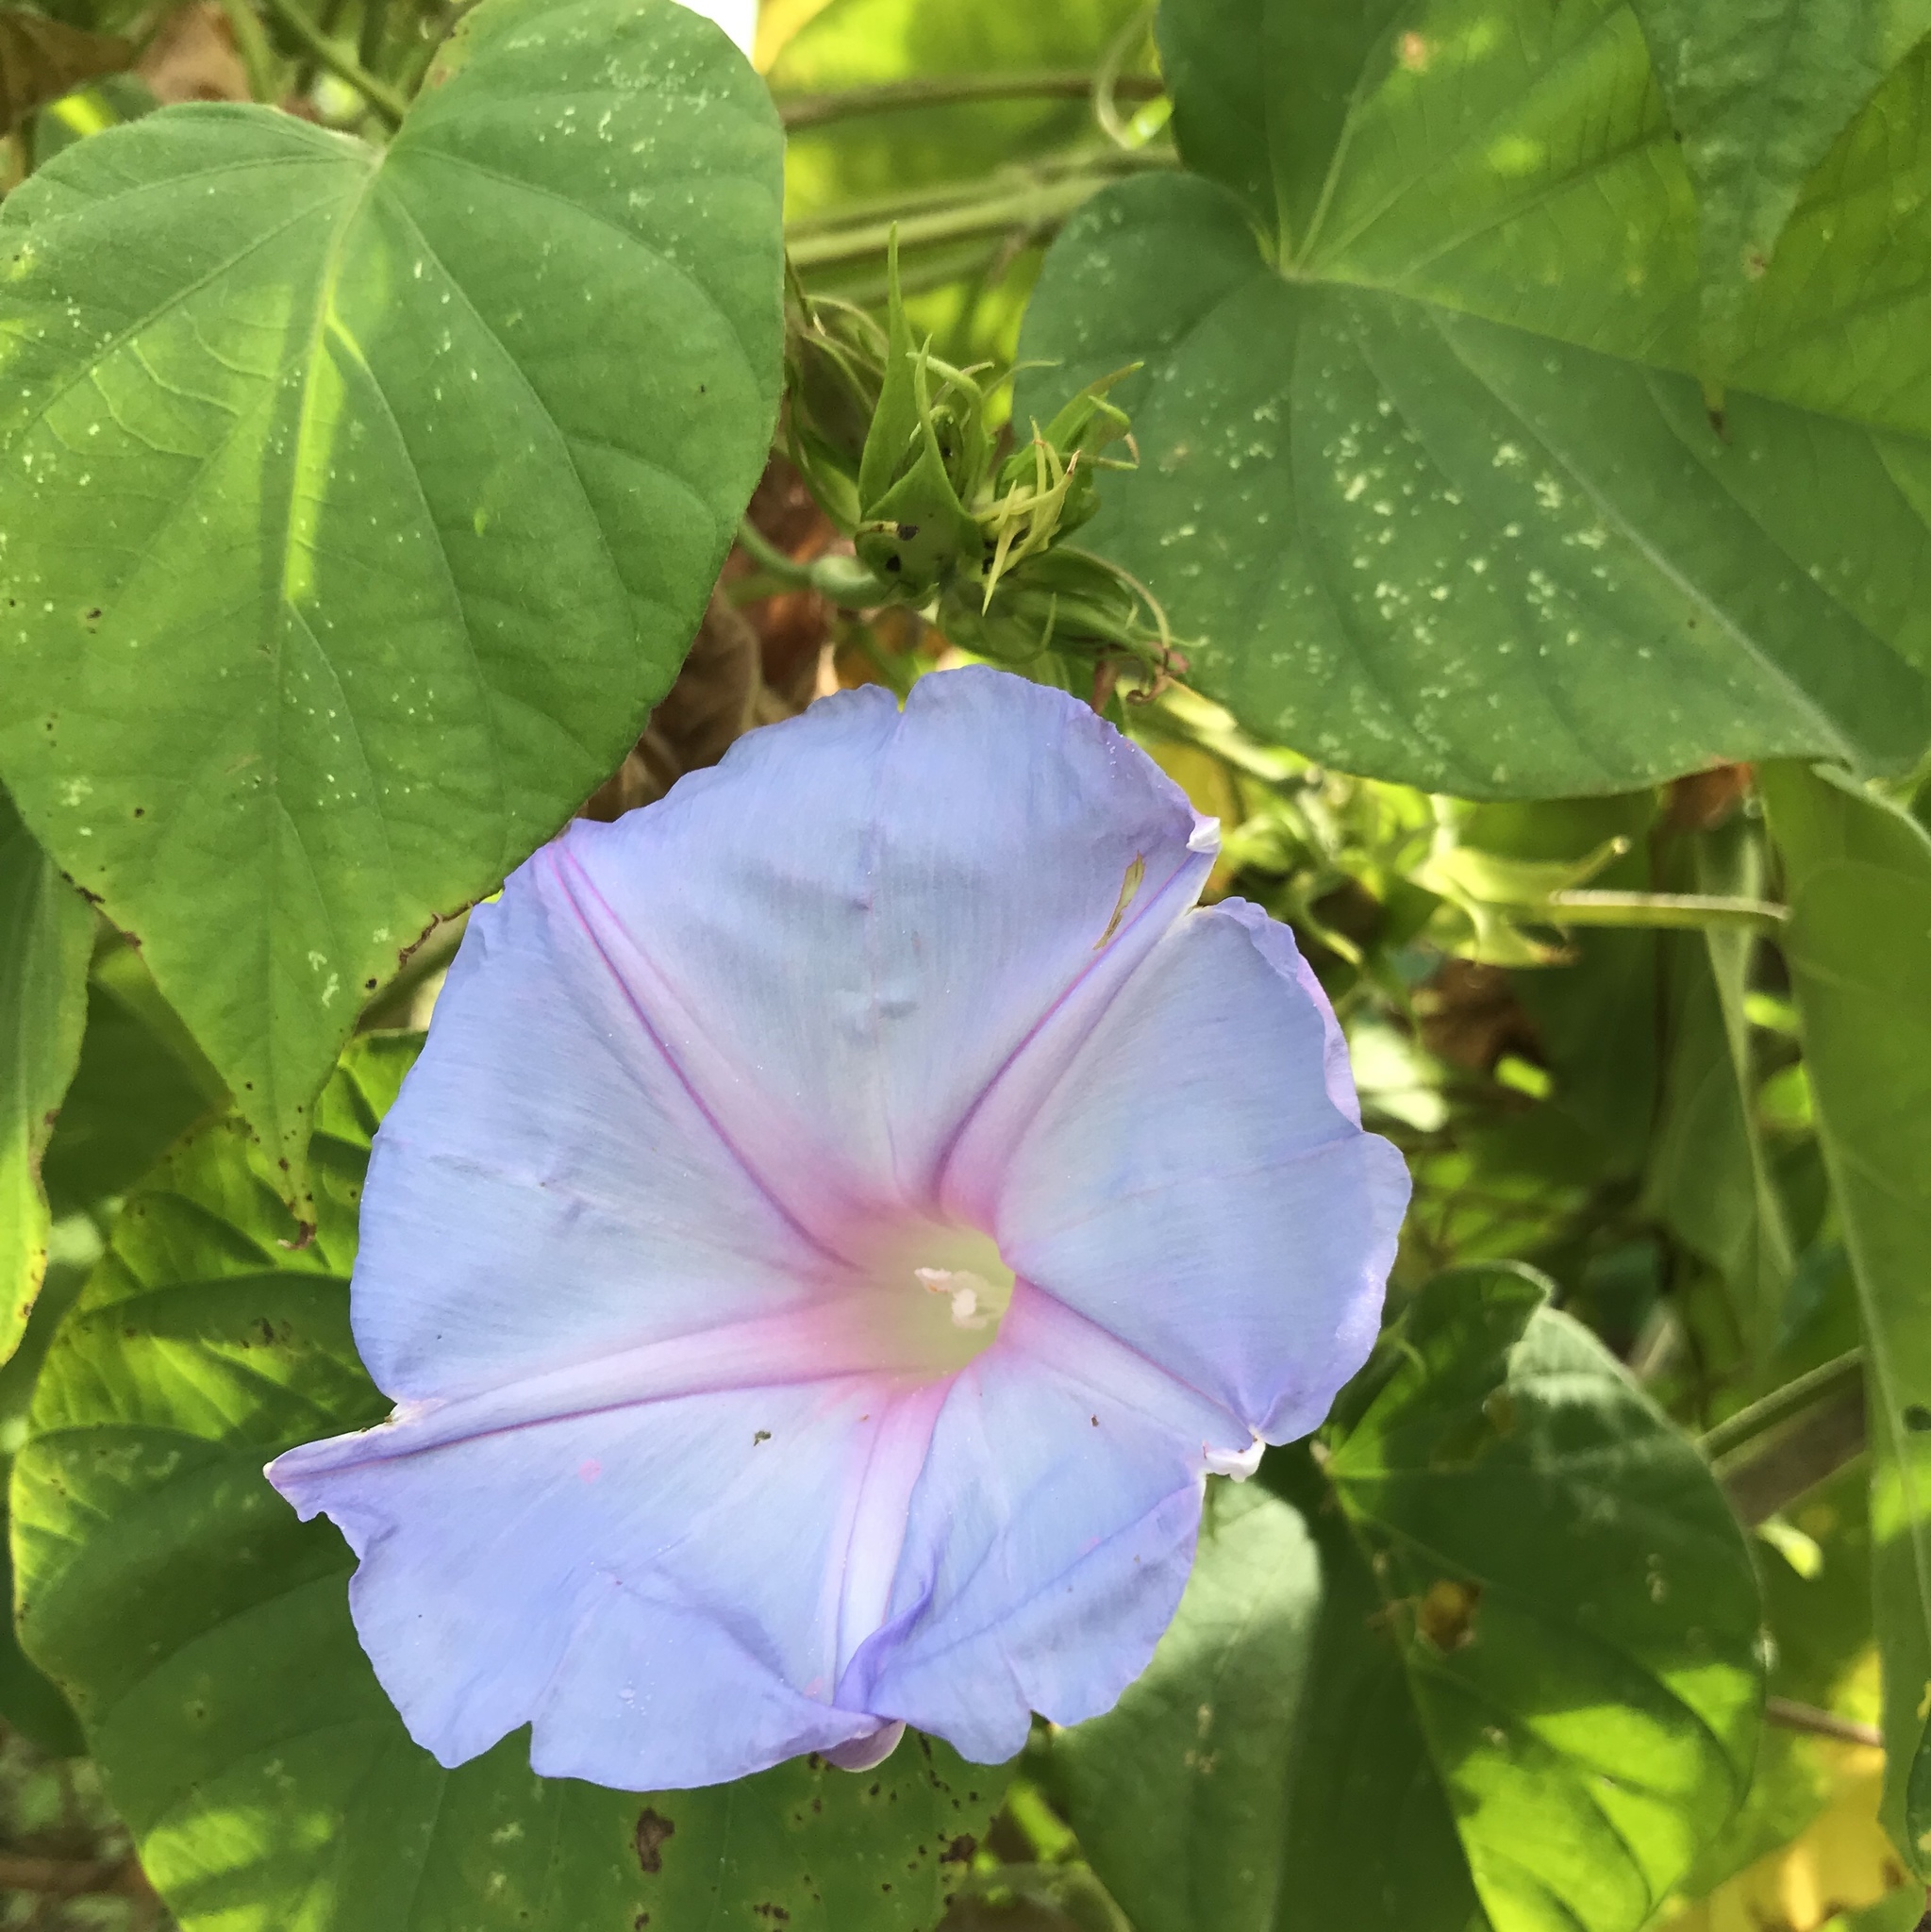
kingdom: Plantae
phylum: Tracheophyta
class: Magnoliopsida
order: Solanales
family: Convolvulaceae
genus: Ipomoea
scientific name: Ipomoea indica
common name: Blue dawnflower
